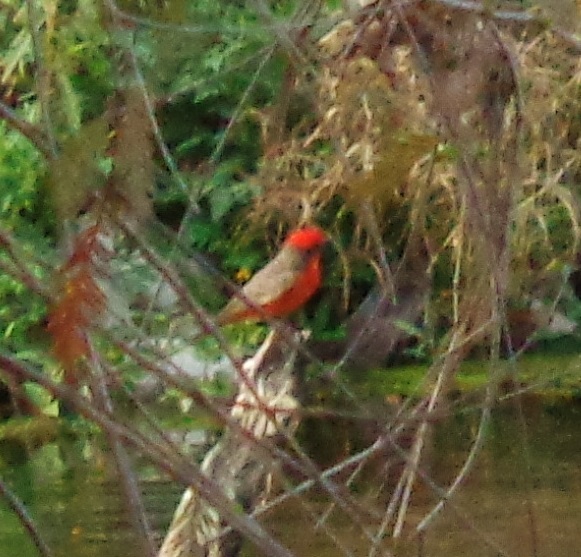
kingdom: Animalia
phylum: Chordata
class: Aves
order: Passeriformes
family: Tyrannidae
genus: Pyrocephalus
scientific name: Pyrocephalus rubinus
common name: Vermilion flycatcher
